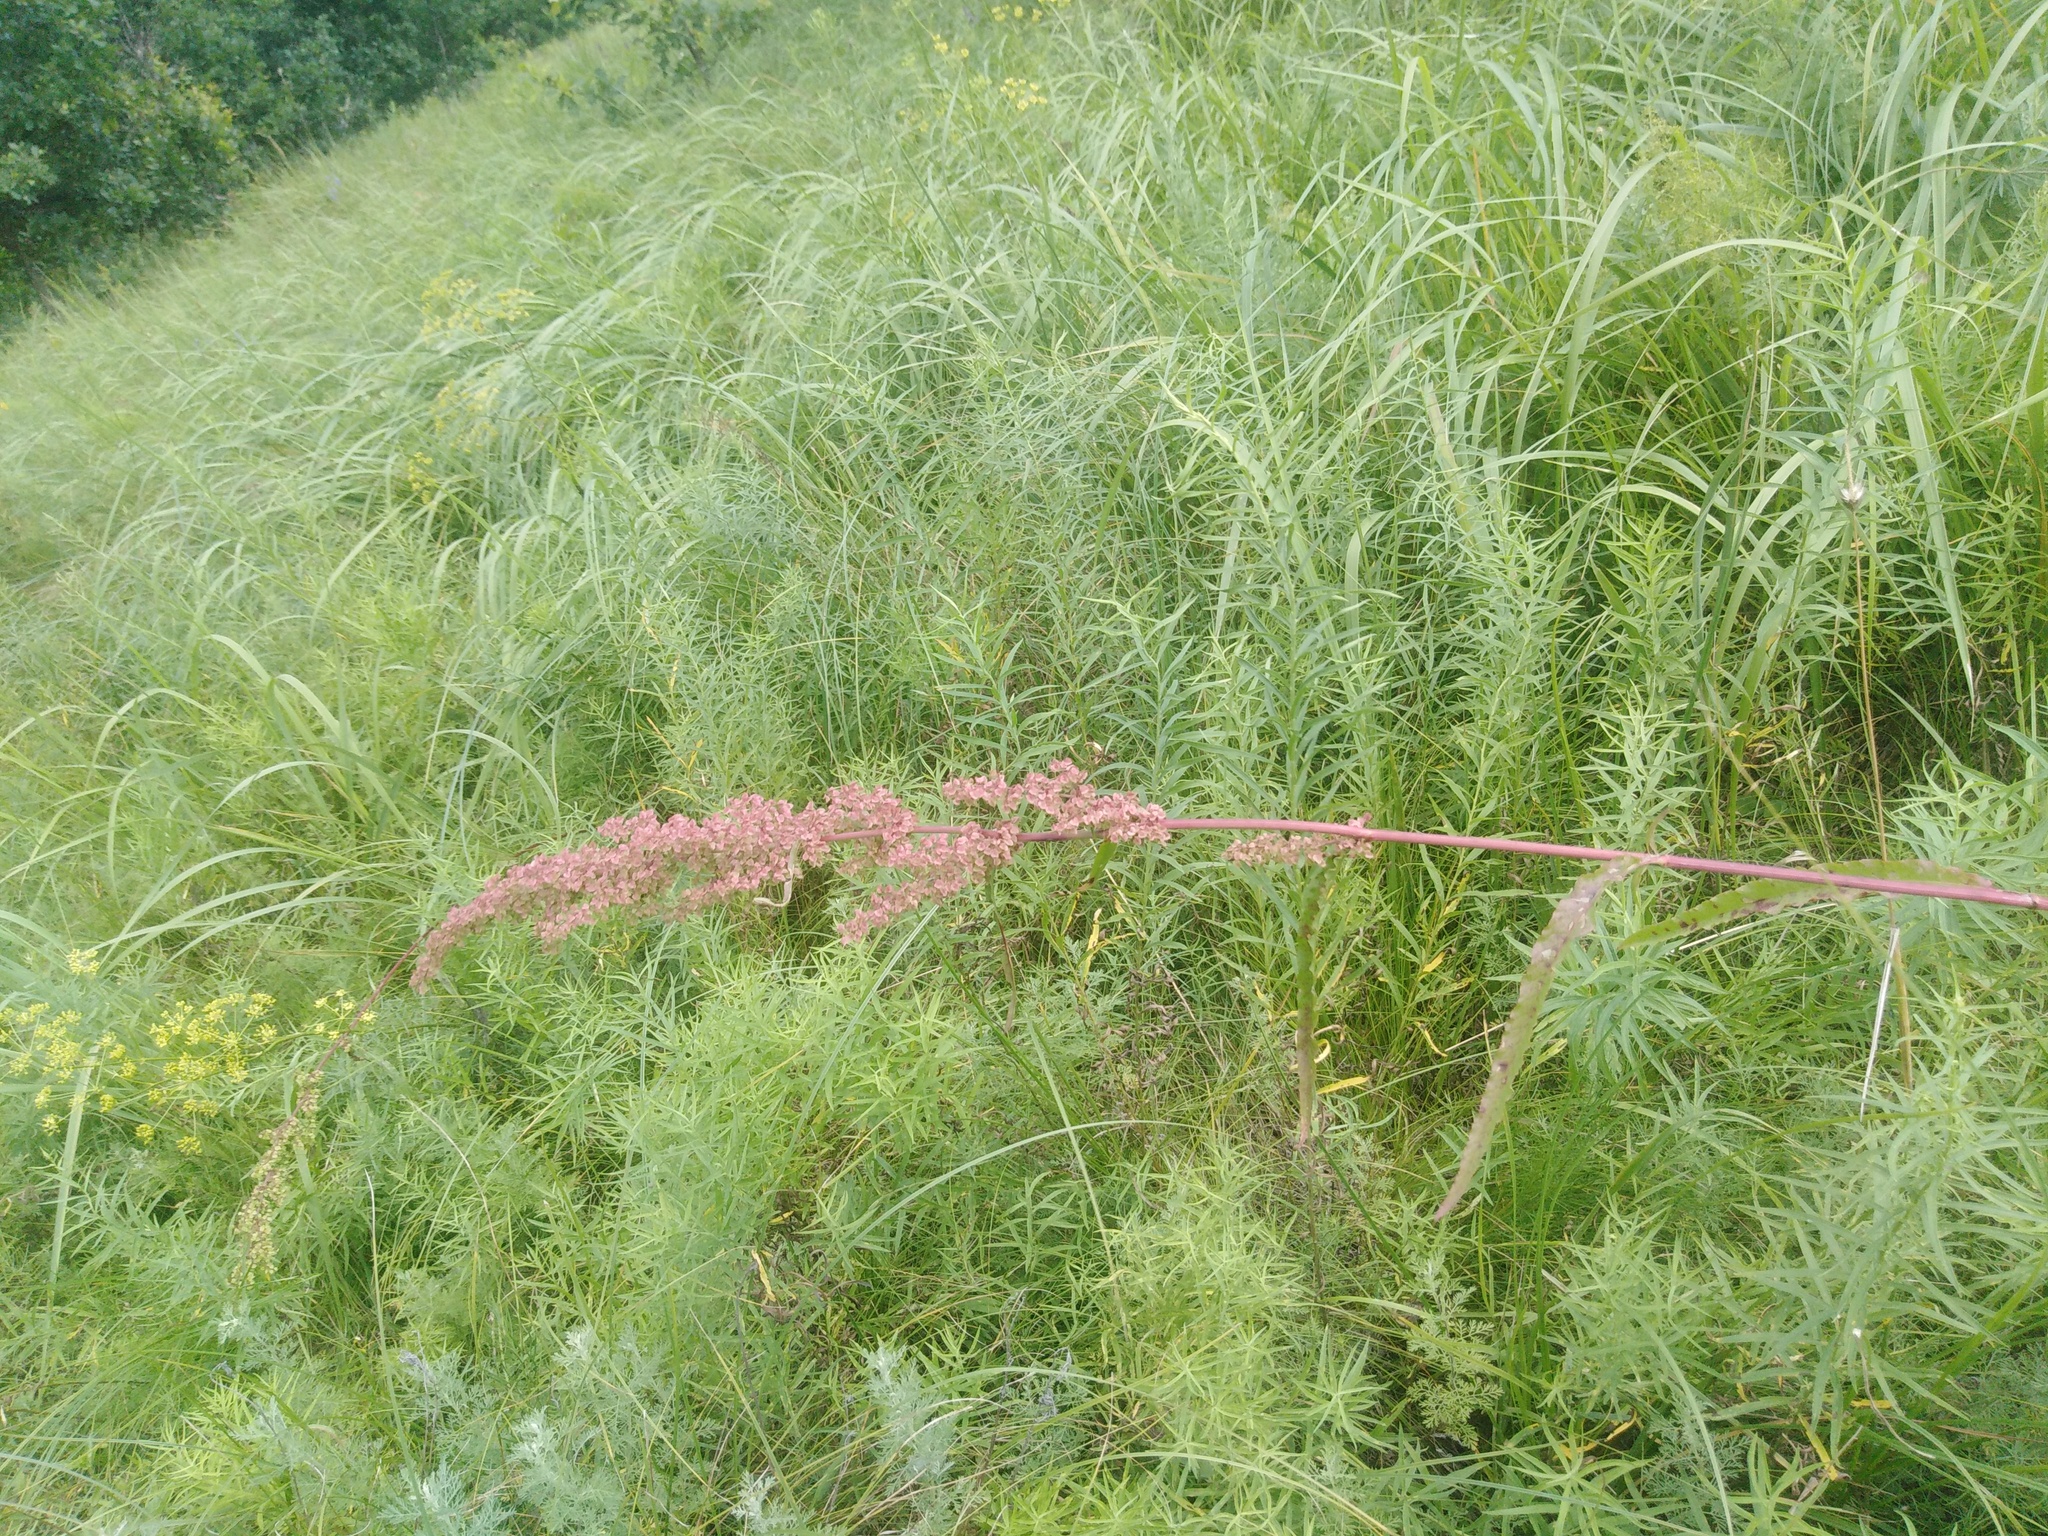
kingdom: Plantae
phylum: Tracheophyta
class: Magnoliopsida
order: Caryophyllales
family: Polygonaceae
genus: Rumex
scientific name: Rumex pseudonatronatus
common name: Field dock
